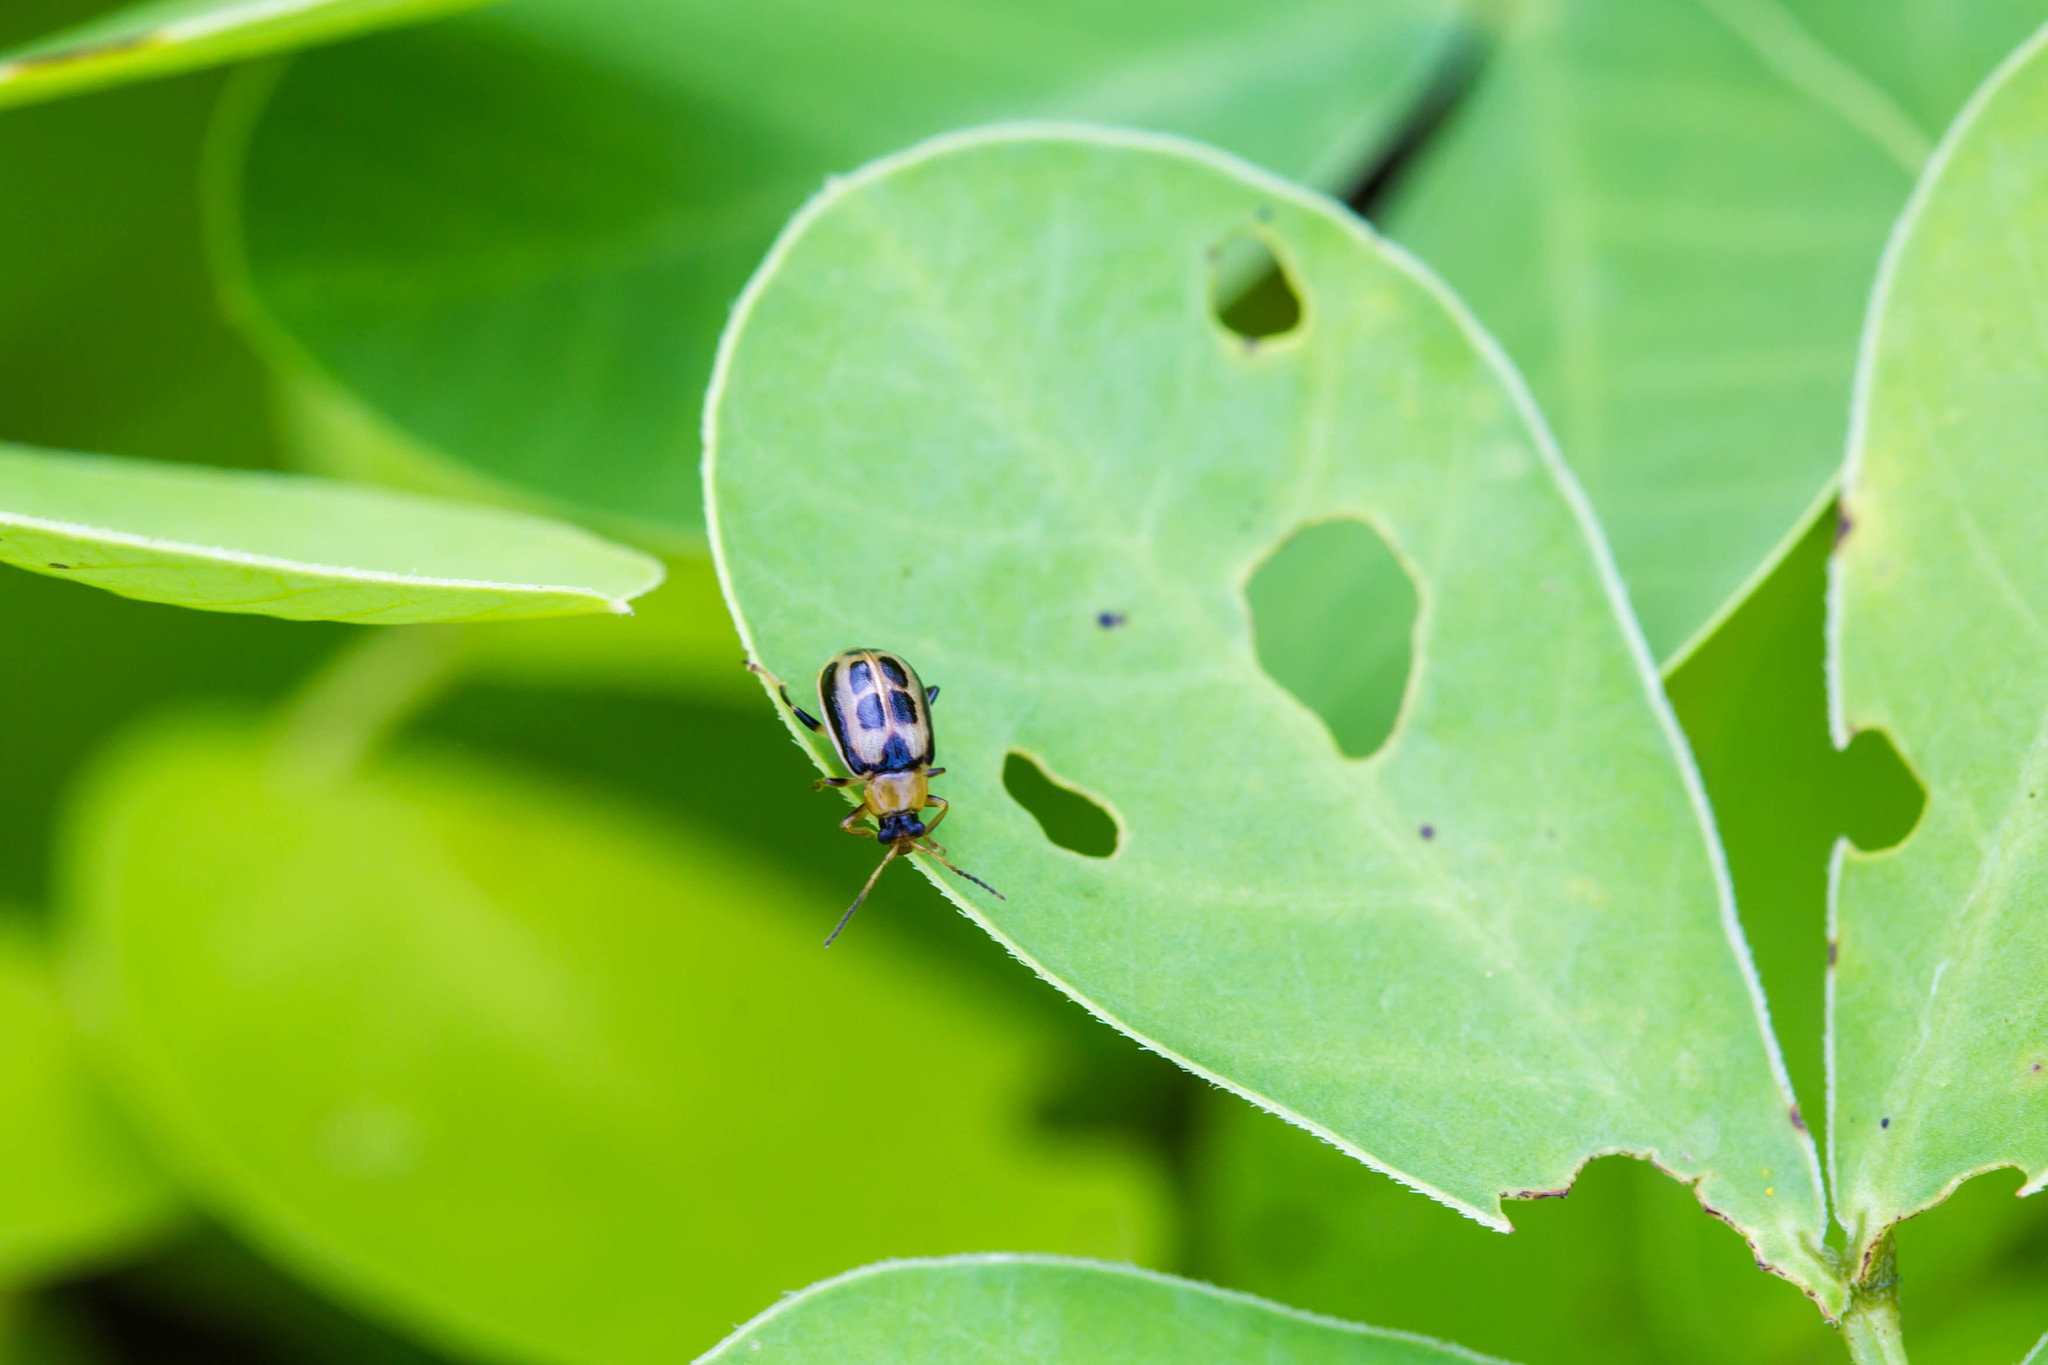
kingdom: Animalia
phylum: Arthropoda
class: Insecta
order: Coleoptera
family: Chrysomelidae
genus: Cerotoma
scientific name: Cerotoma trifurcata
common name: Bean leaf beetle
